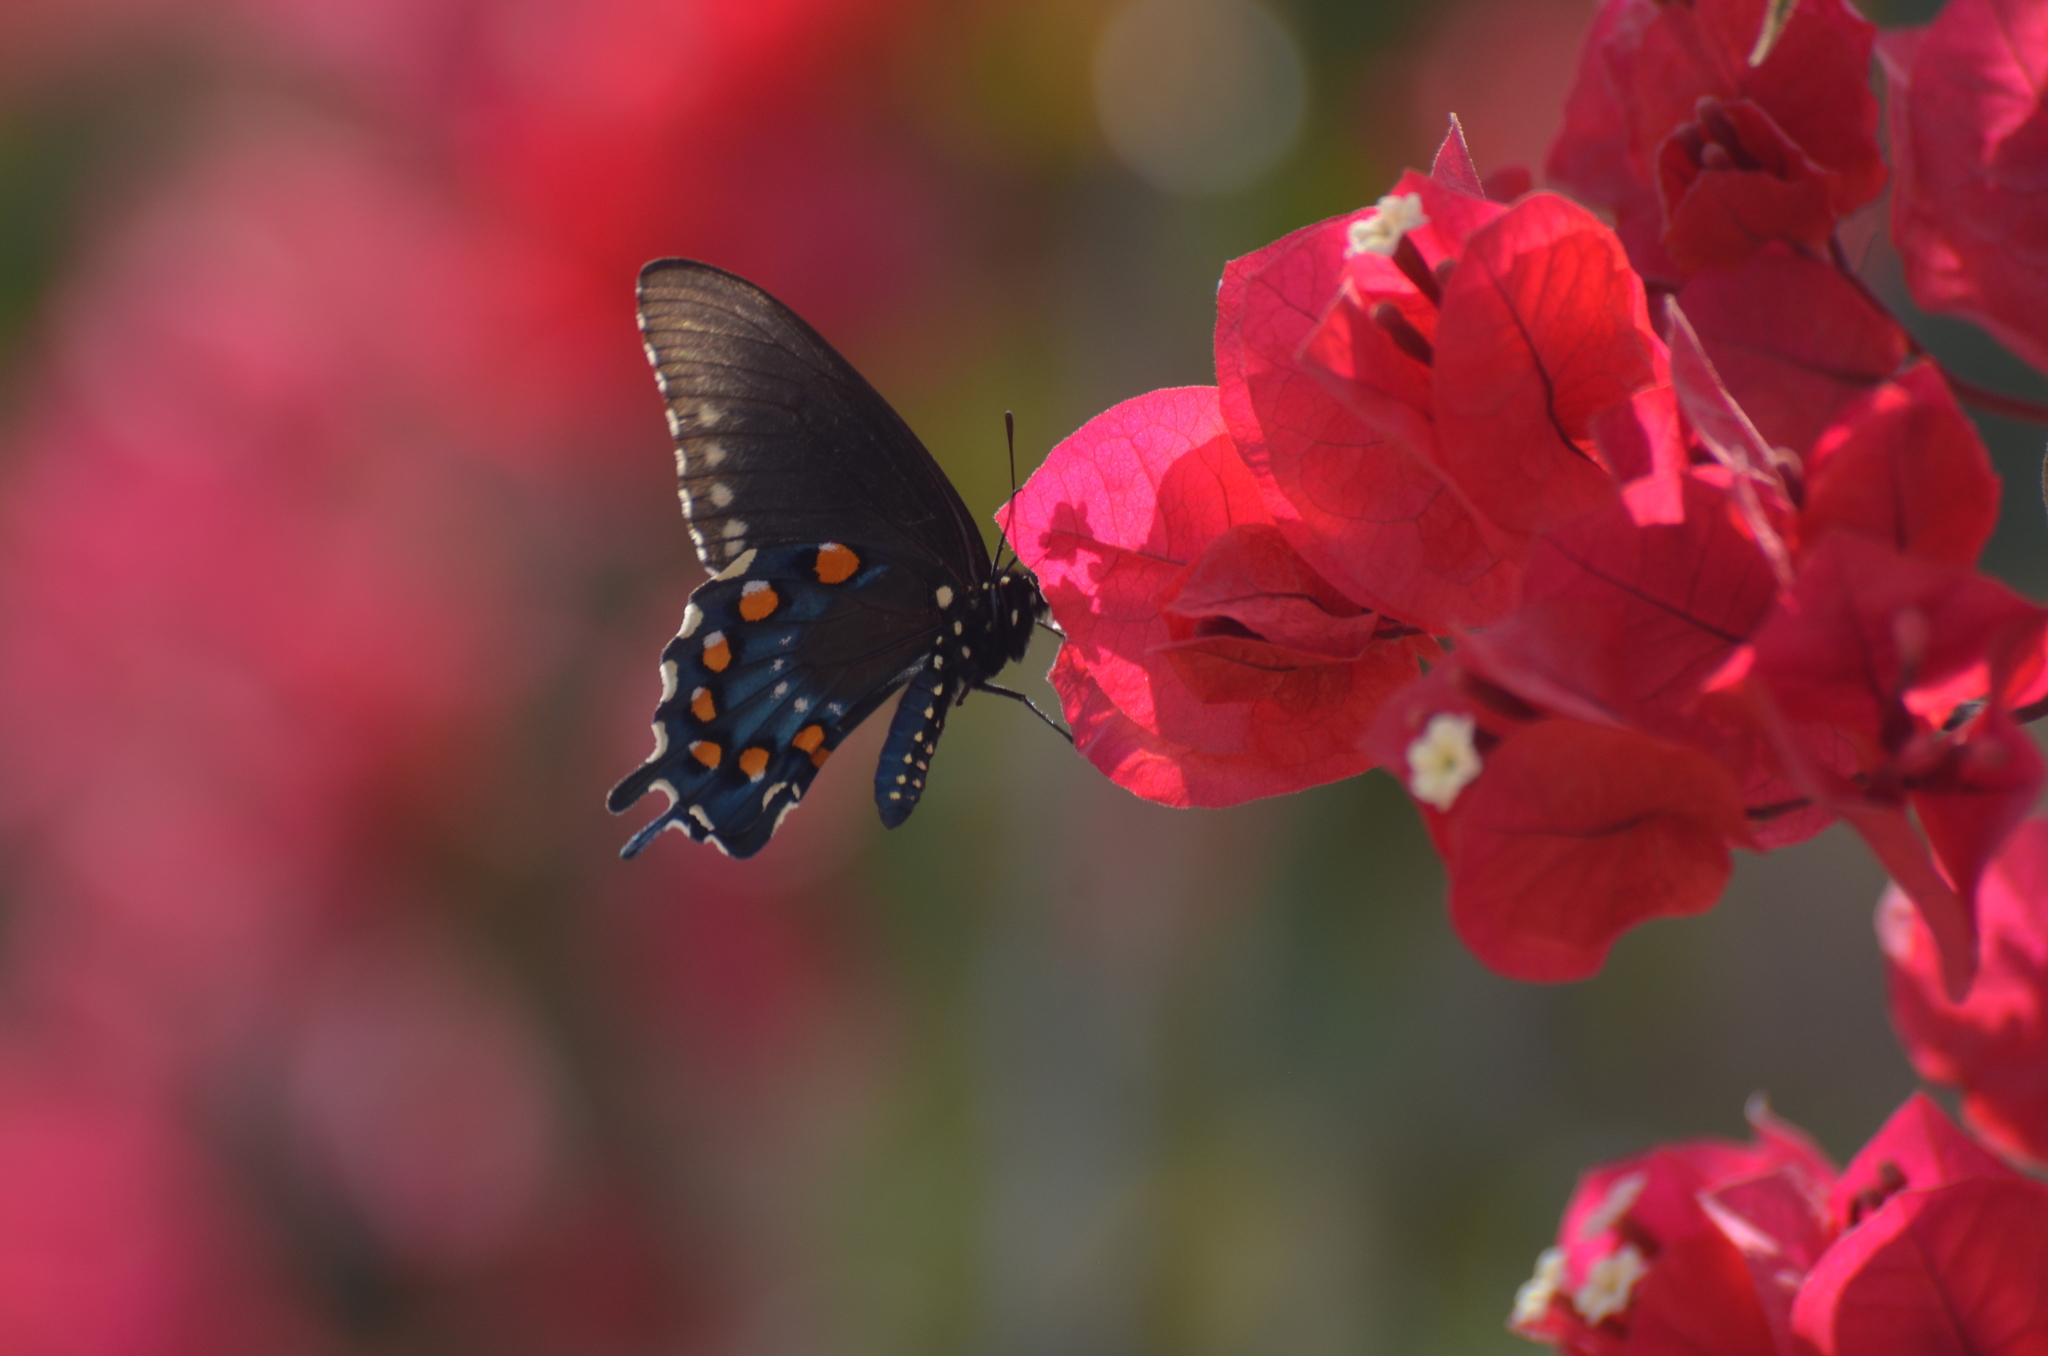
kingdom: Animalia
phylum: Arthropoda
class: Insecta
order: Lepidoptera
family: Papilionidae
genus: Battus
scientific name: Battus philenor
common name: Pipevine swallowtail
